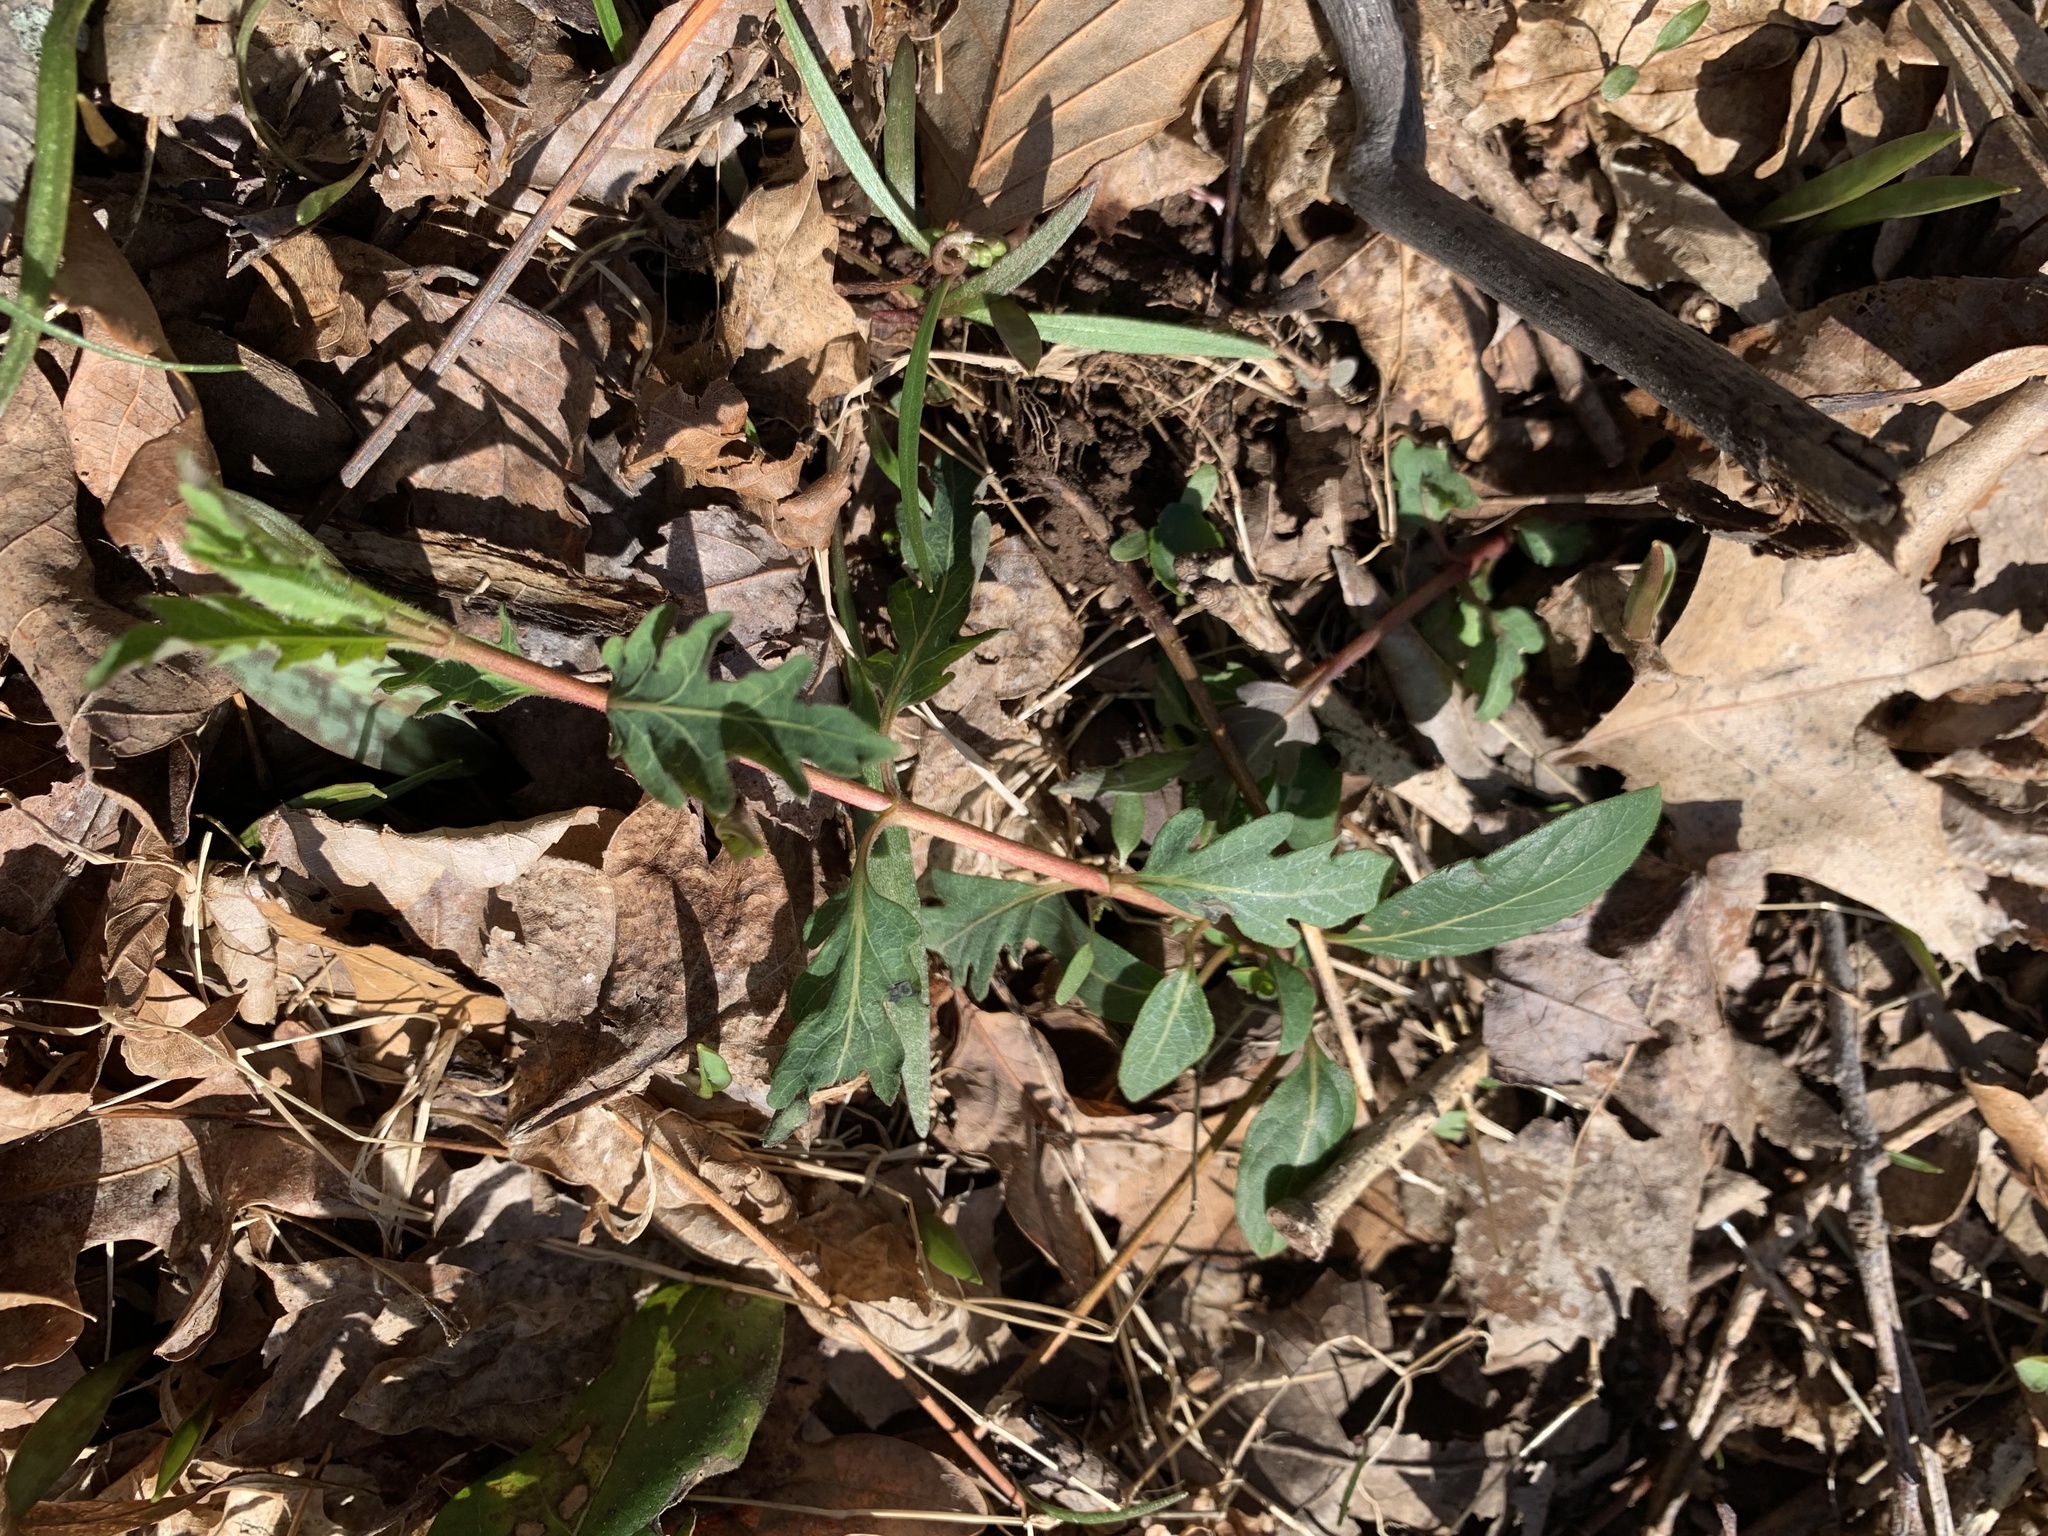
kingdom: Plantae
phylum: Tracheophyta
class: Magnoliopsida
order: Dipsacales
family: Caprifoliaceae
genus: Lonicera
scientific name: Lonicera japonica
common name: Japanese honeysuckle
